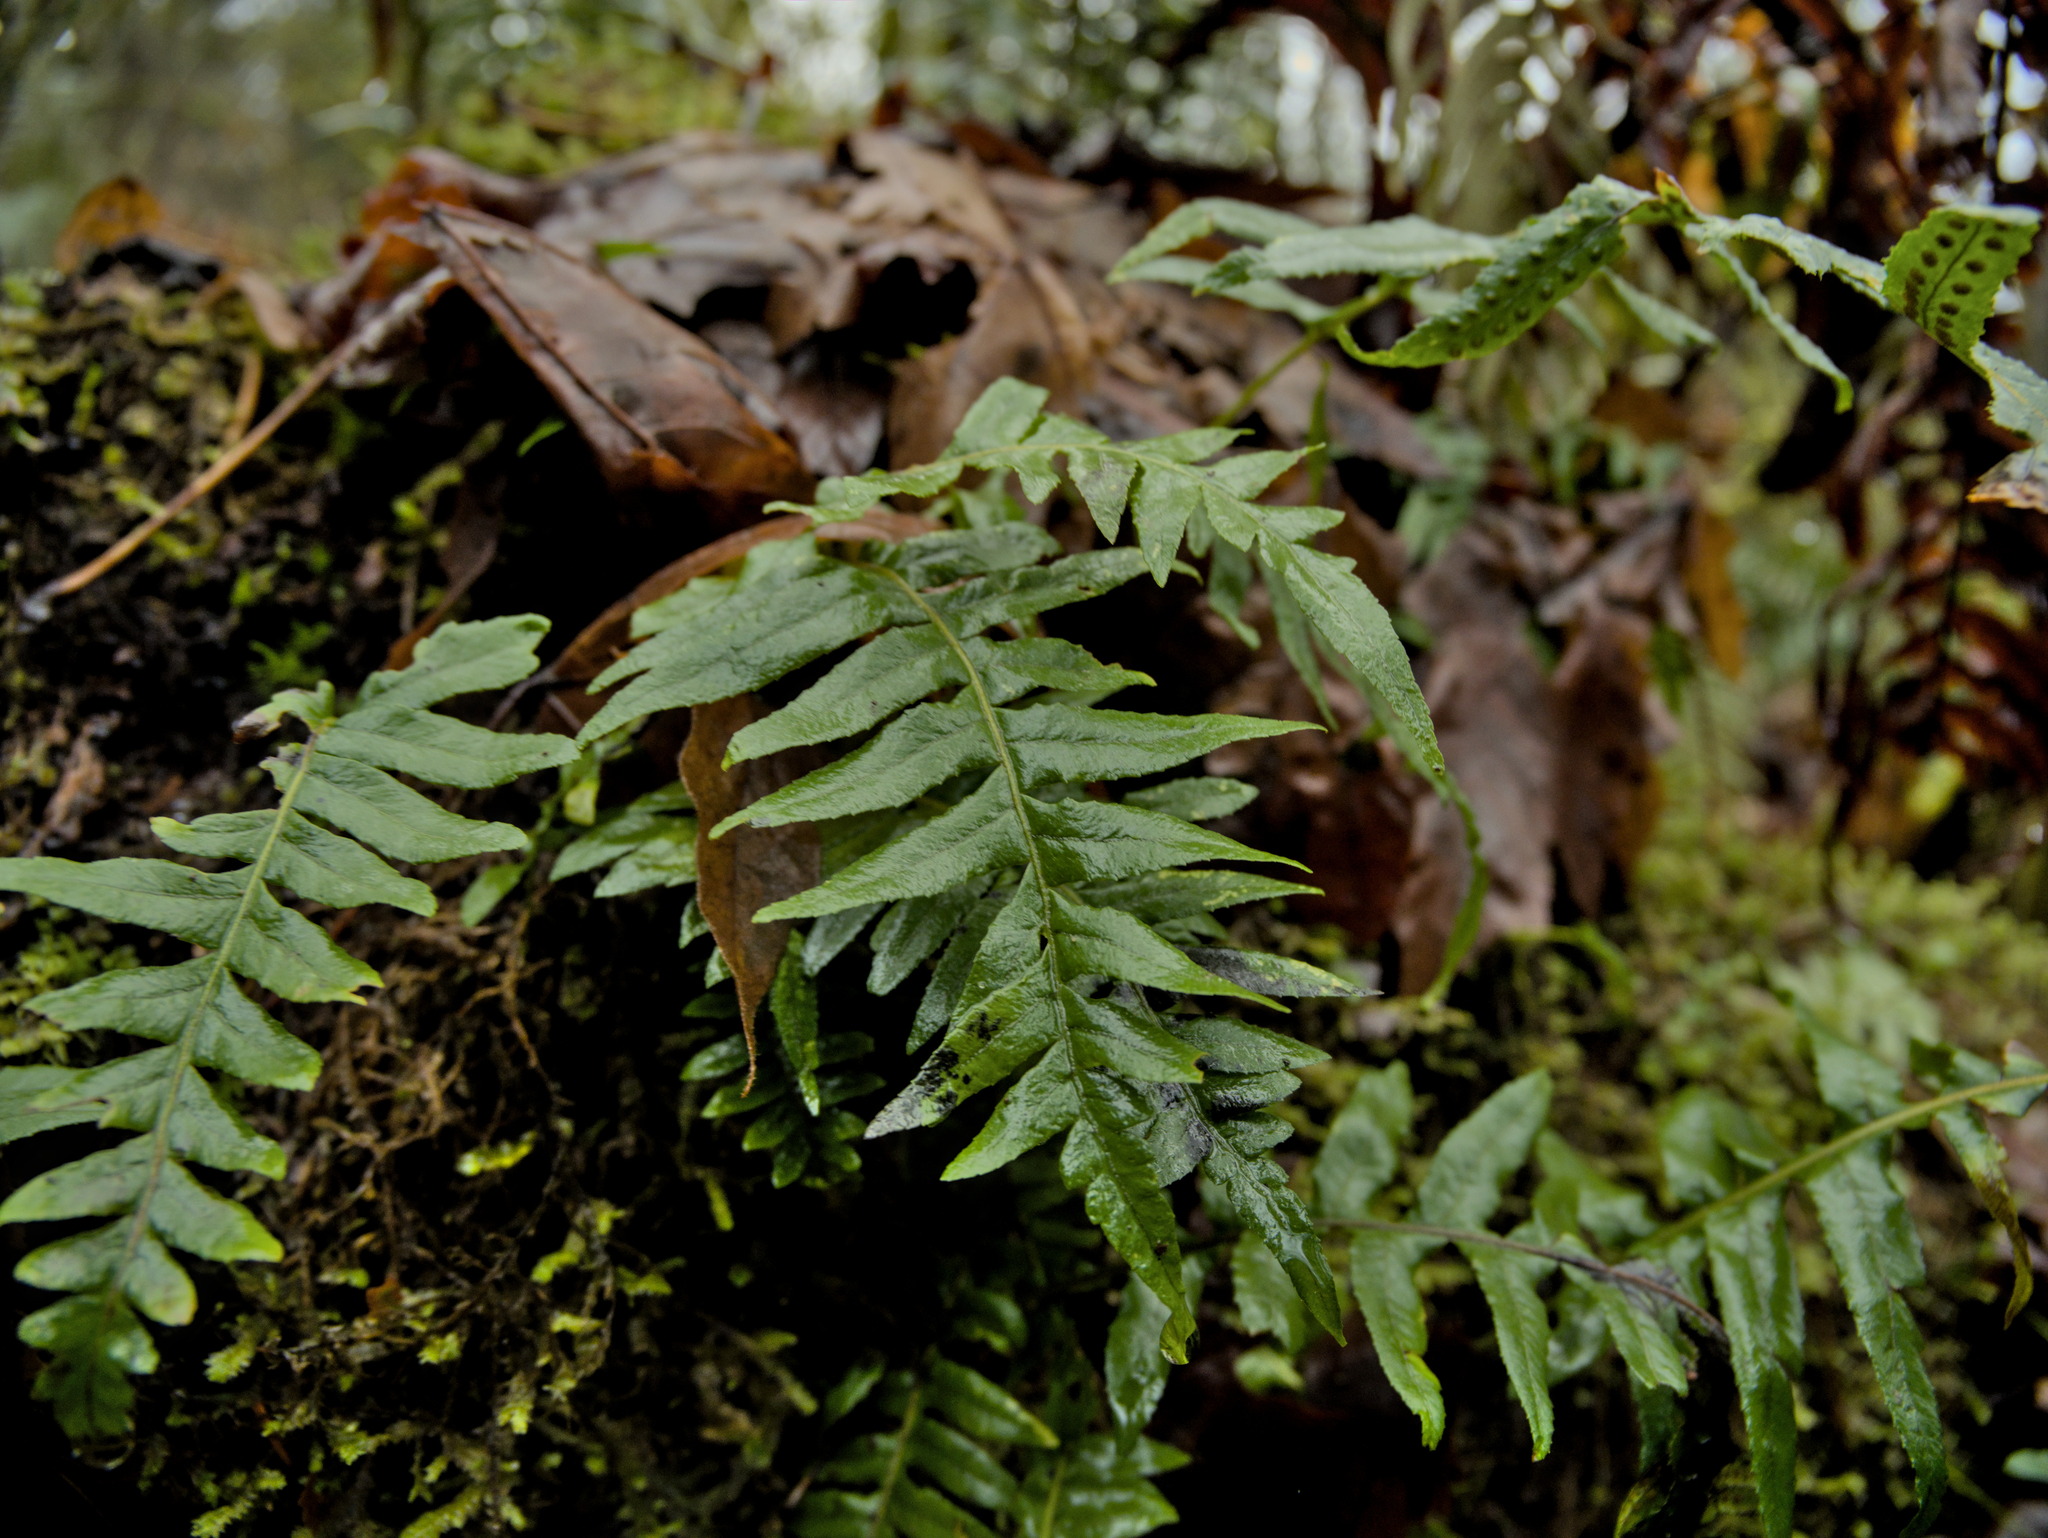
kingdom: Plantae
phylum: Tracheophyta
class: Polypodiopsida
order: Polypodiales
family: Polypodiaceae
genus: Polypodium
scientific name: Polypodium glycyrrhiza
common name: Licorice fern
